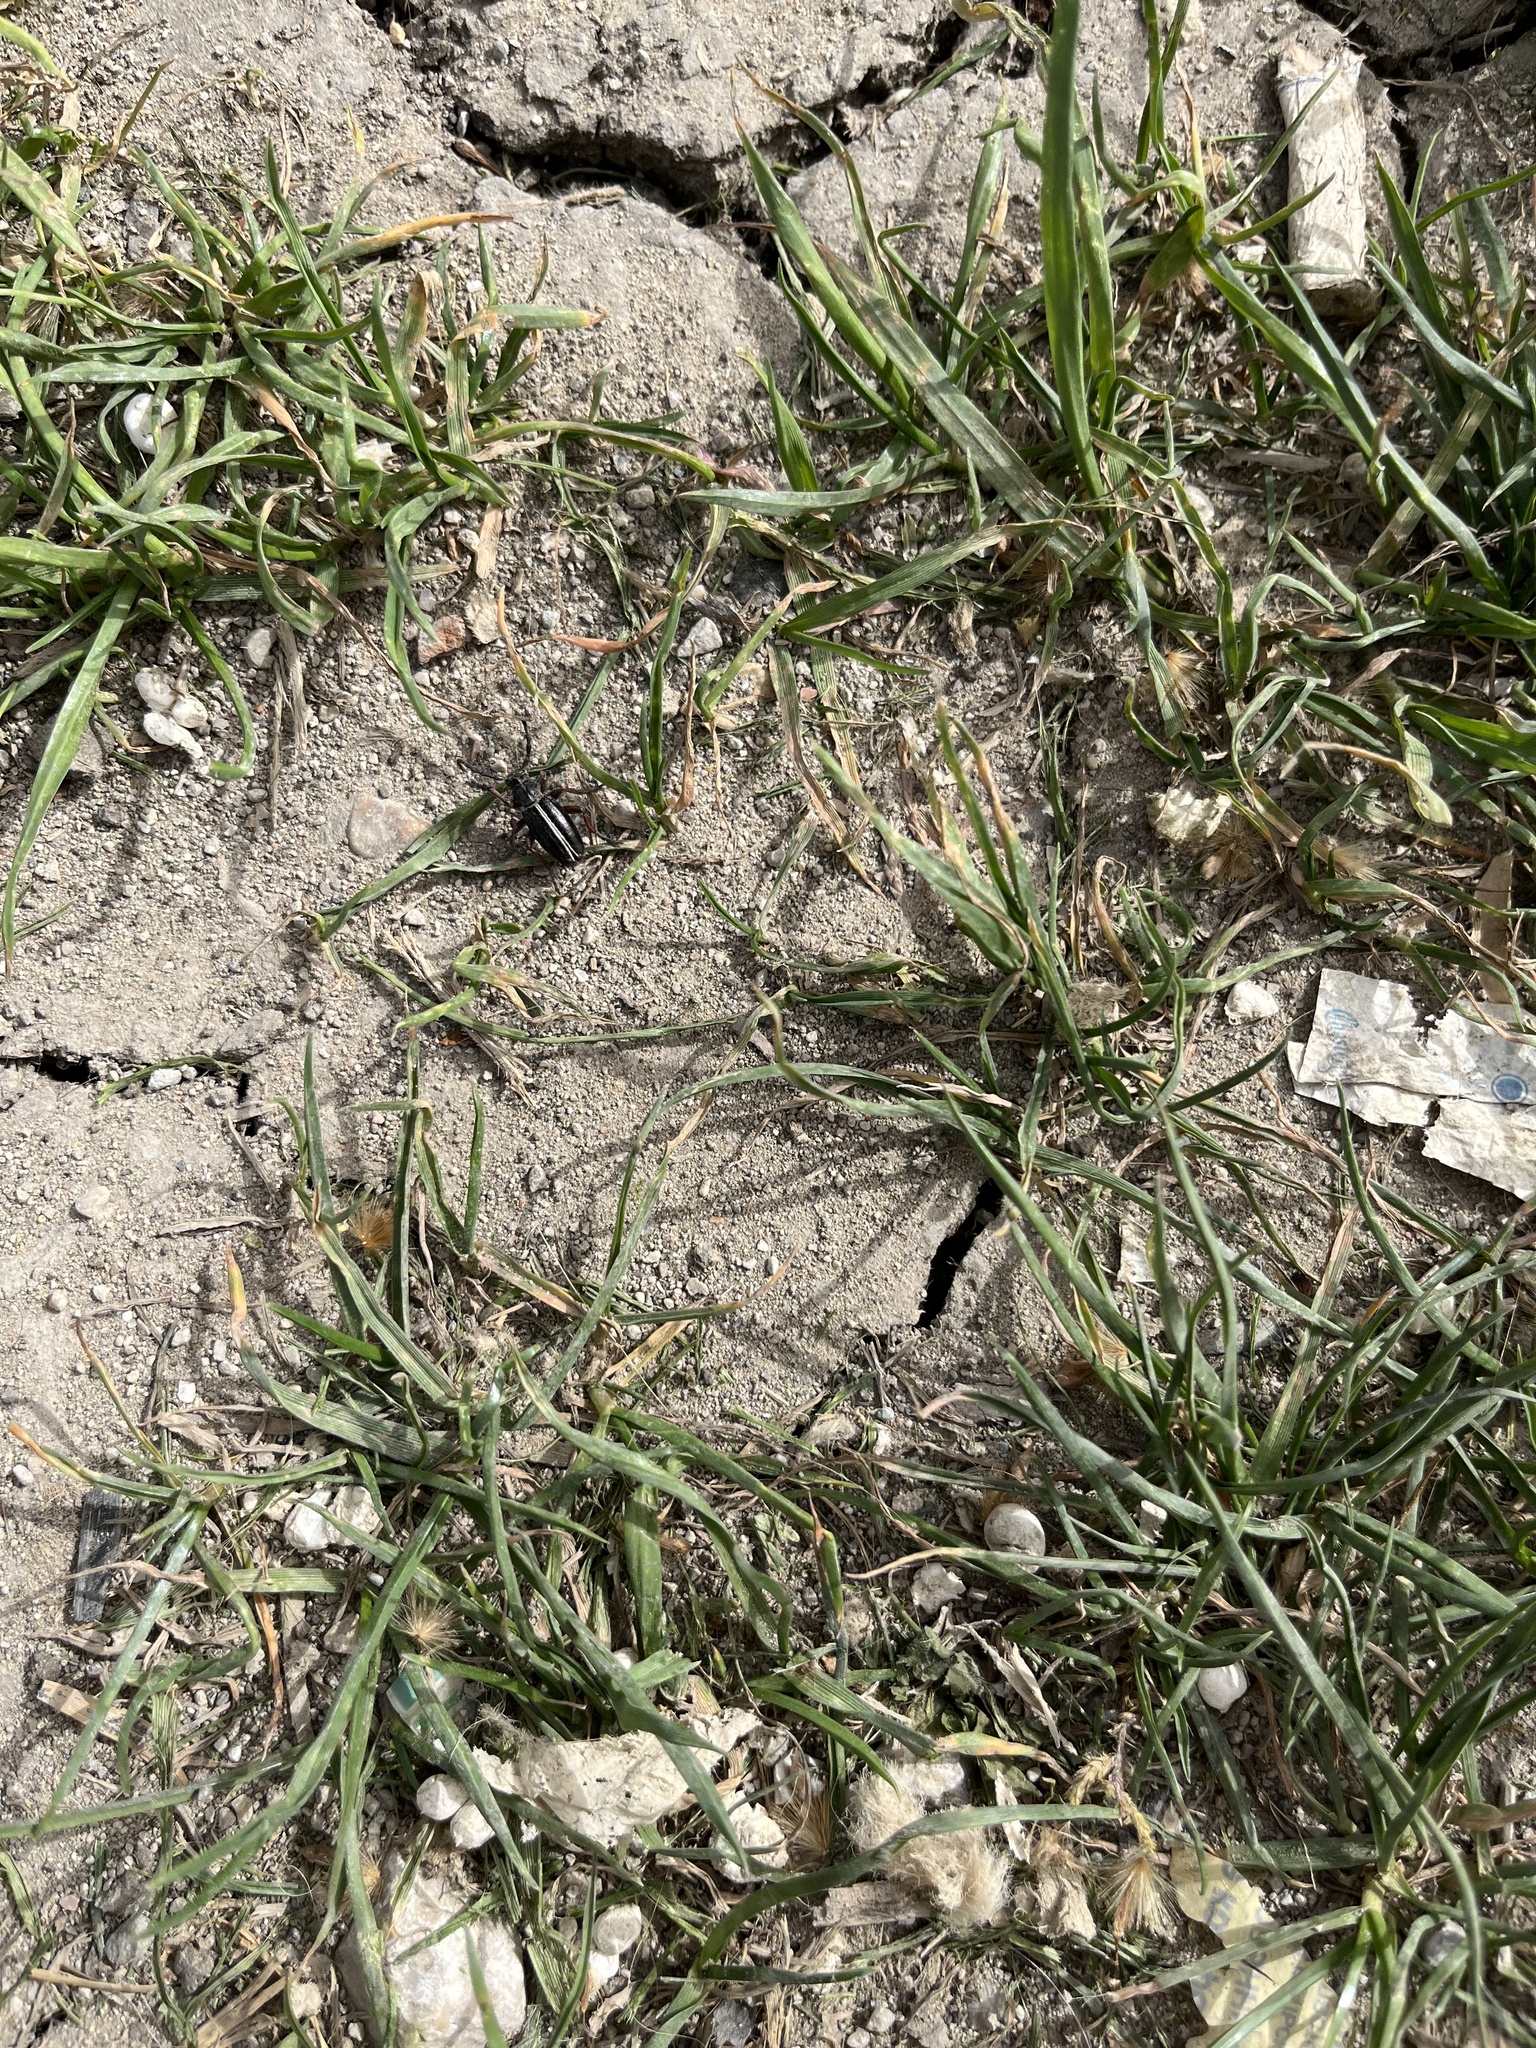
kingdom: Animalia
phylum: Arthropoda
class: Insecta
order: Coleoptera
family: Cerambycidae
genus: Dorcadion
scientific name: Dorcadion cinerarium
